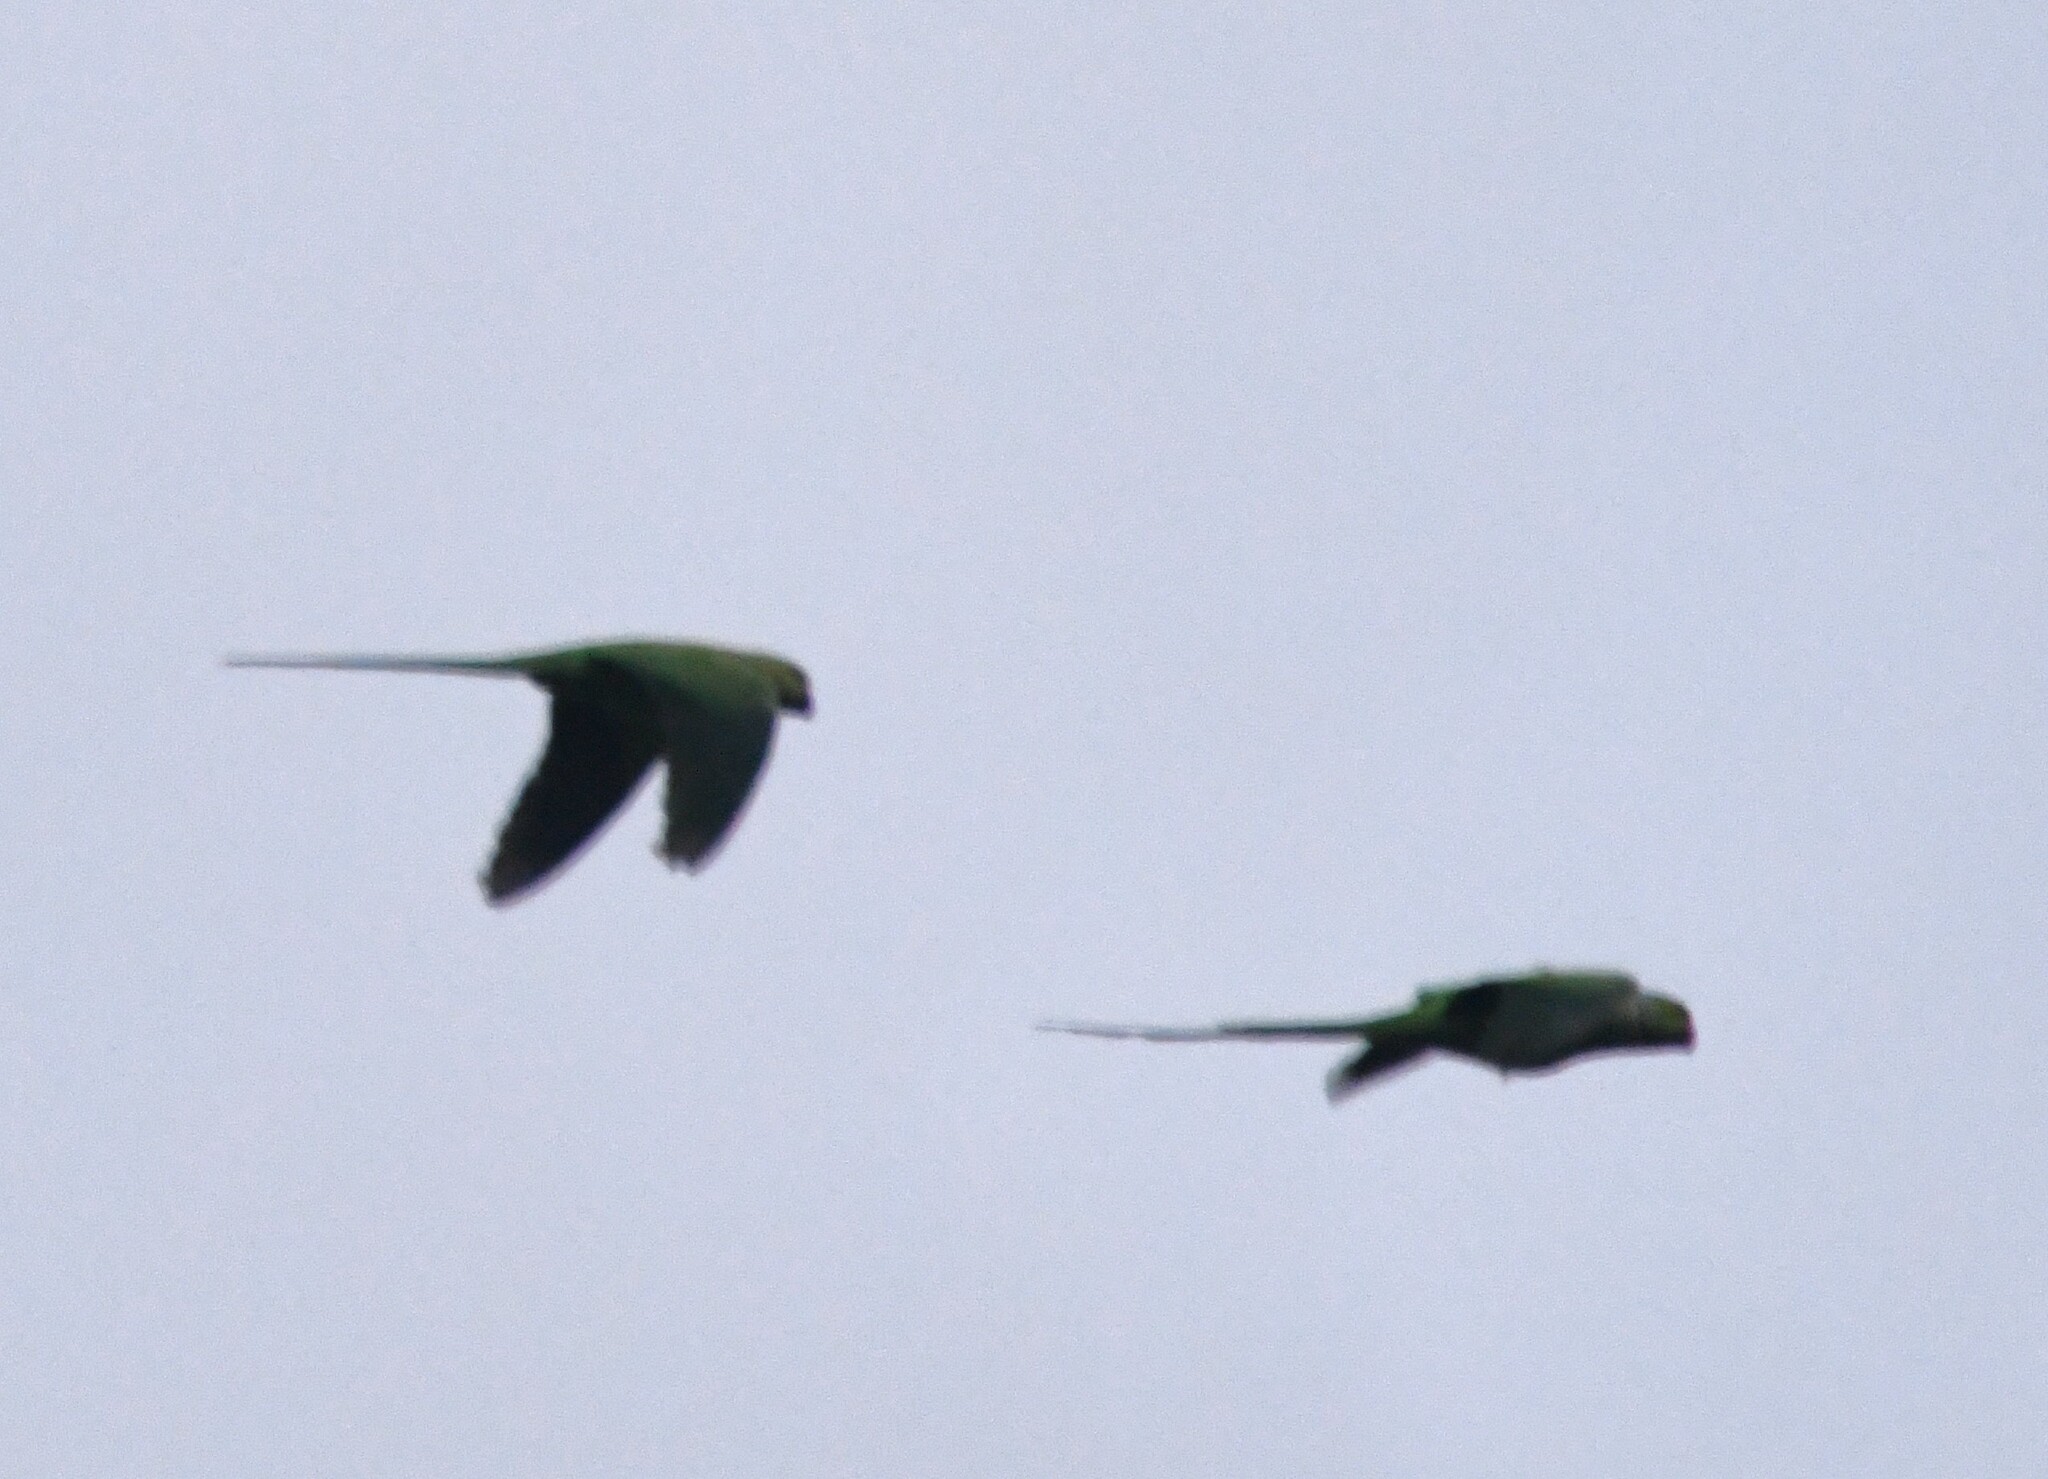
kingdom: Animalia
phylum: Chordata
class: Aves
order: Psittaciformes
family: Psittacidae
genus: Psittacula
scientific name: Psittacula krameri
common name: Rose-ringed parakeet
